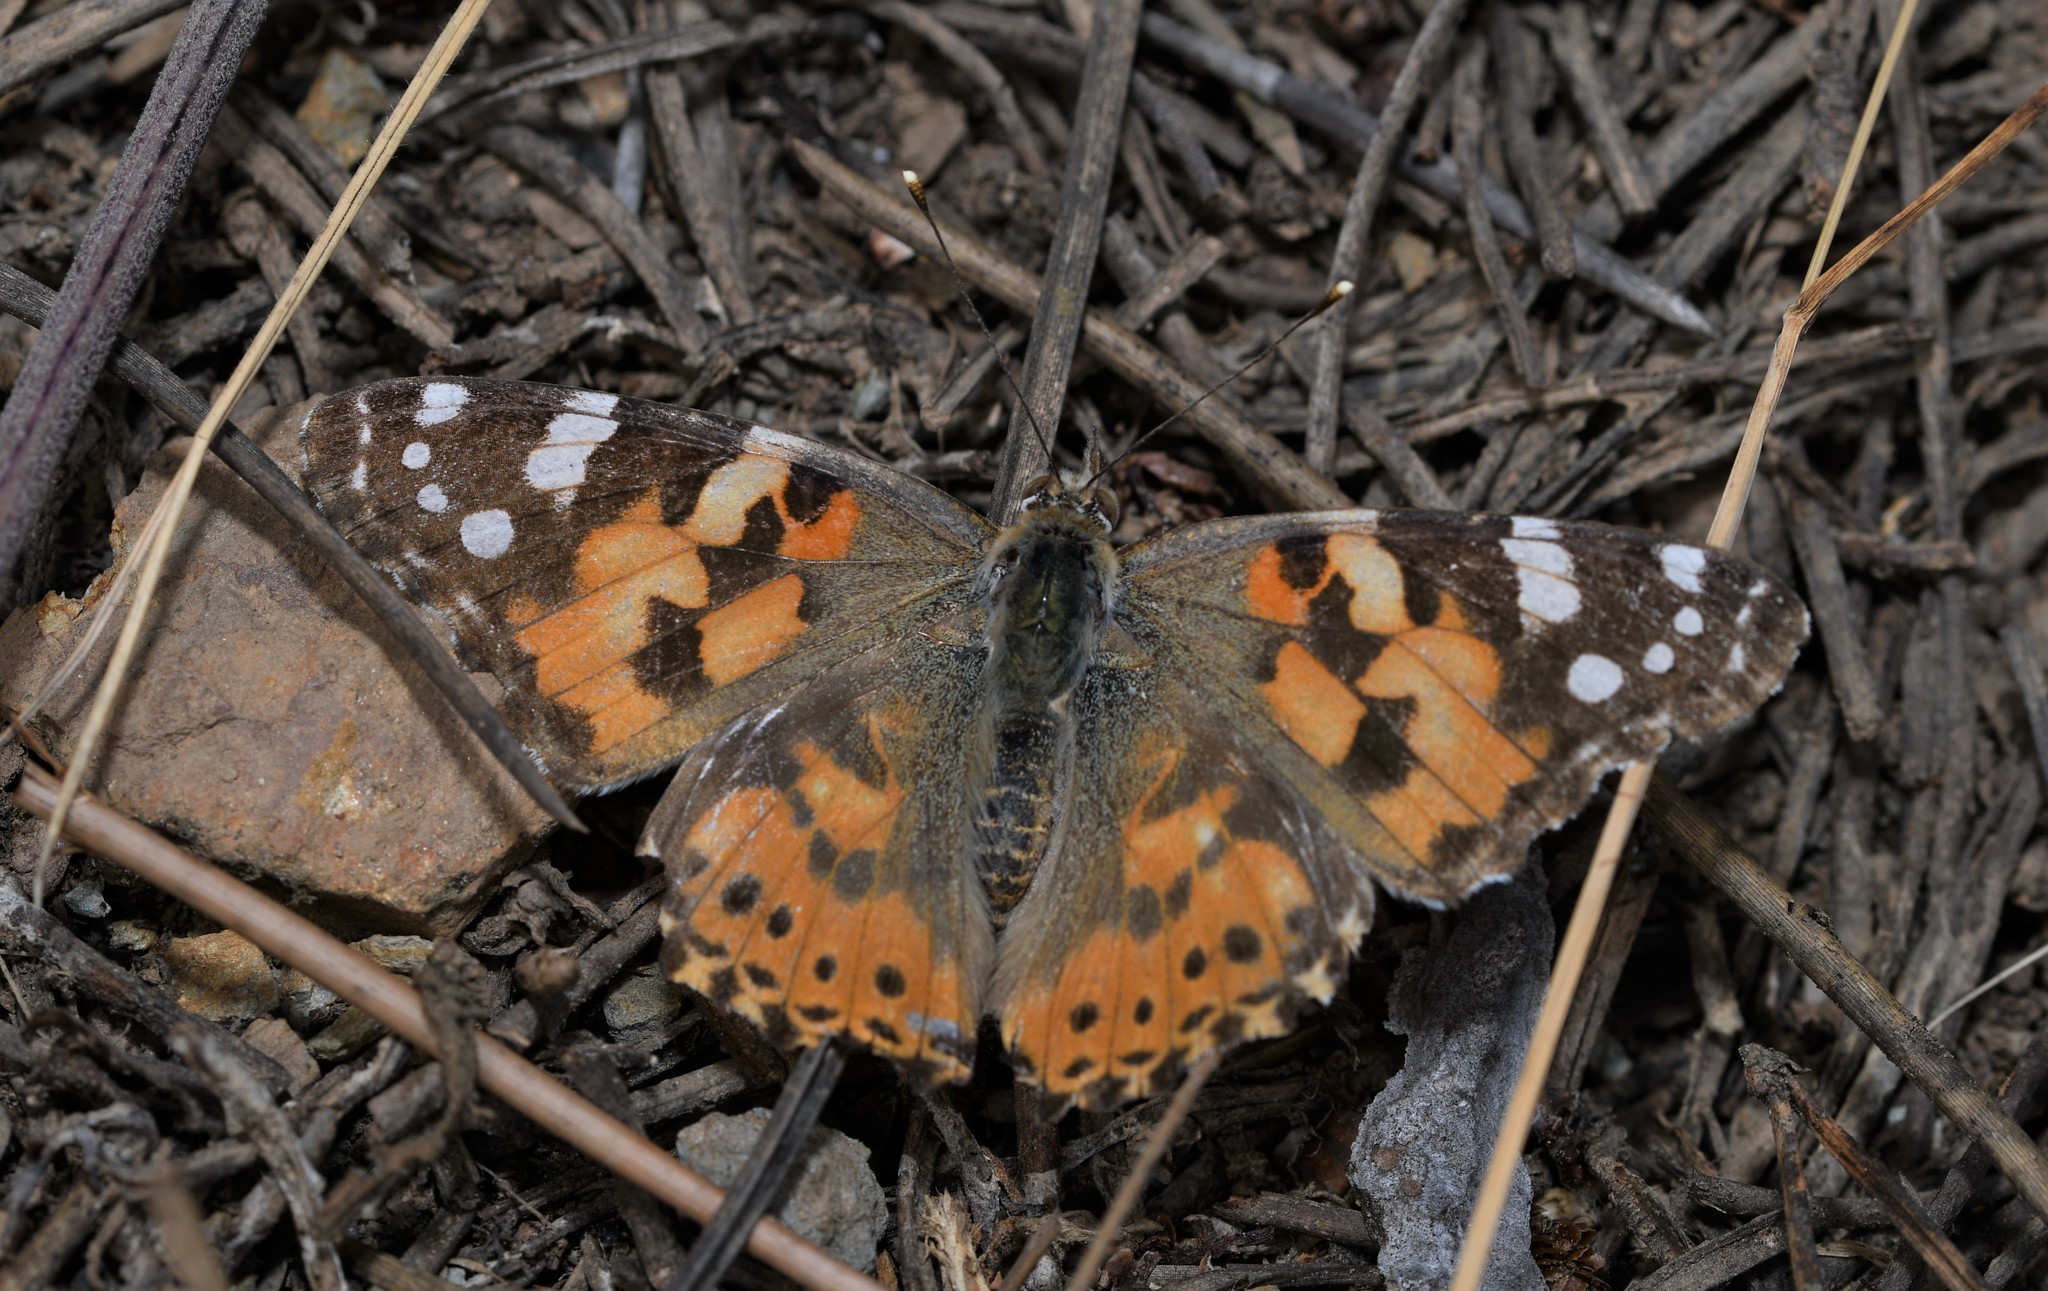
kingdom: Animalia
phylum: Arthropoda
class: Insecta
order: Lepidoptera
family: Nymphalidae
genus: Vanessa
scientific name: Vanessa cardui
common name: Painted lady
